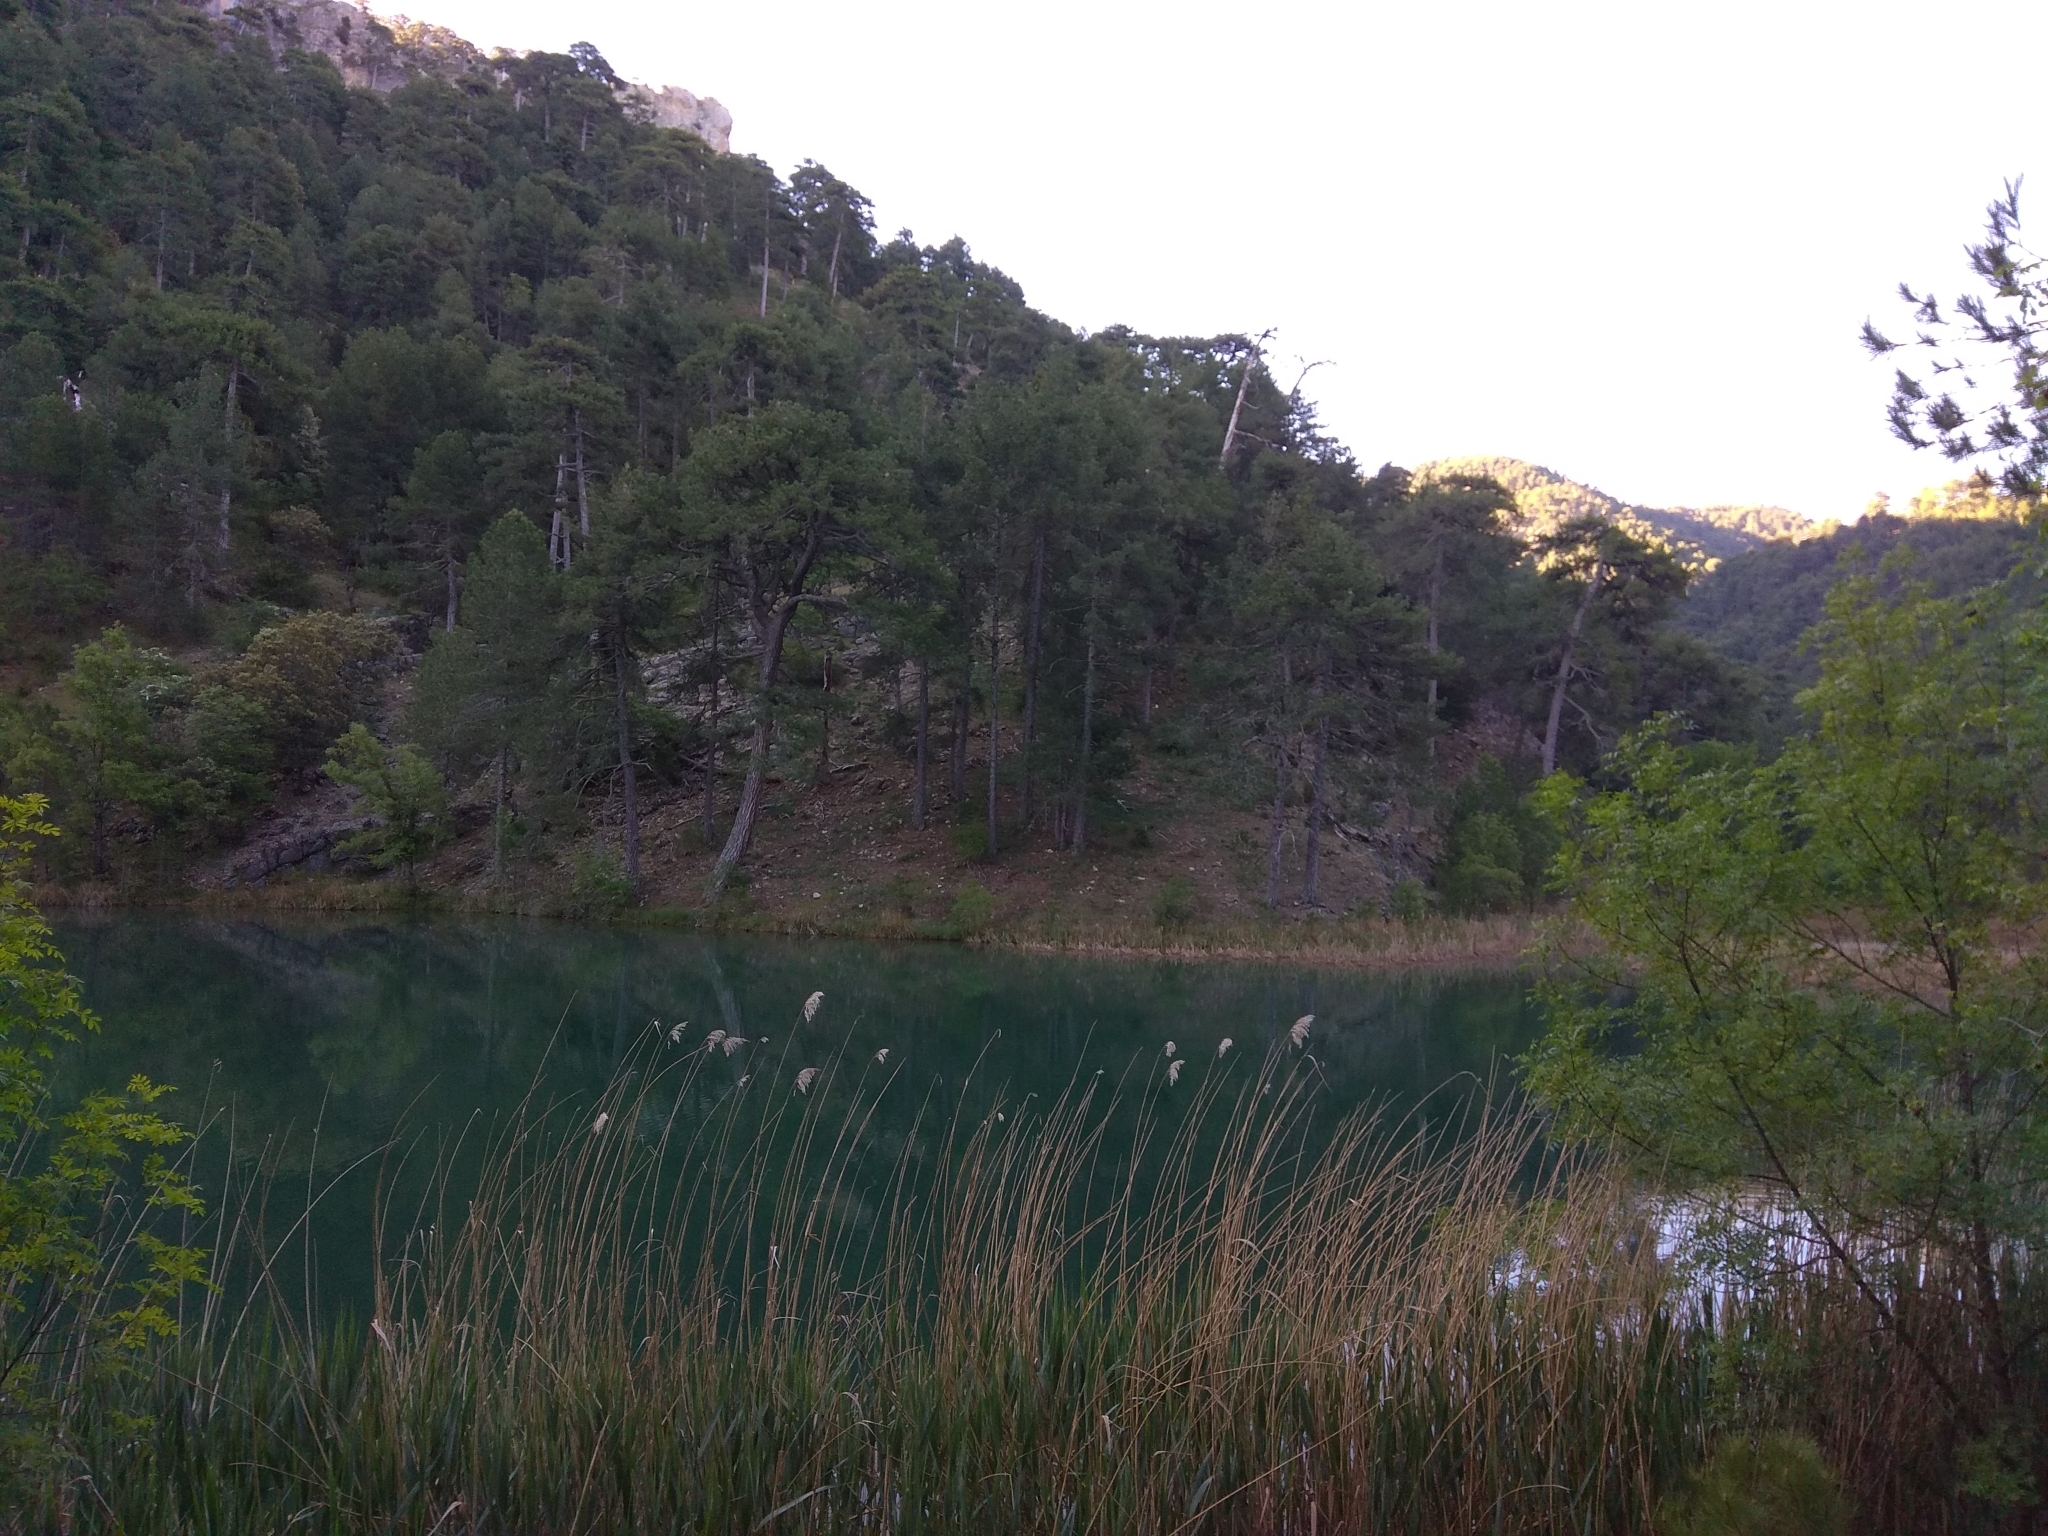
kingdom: Plantae
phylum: Tracheophyta
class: Pinopsida
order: Pinales
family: Pinaceae
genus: Pinus
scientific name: Pinus nigra
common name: Austrian pine
